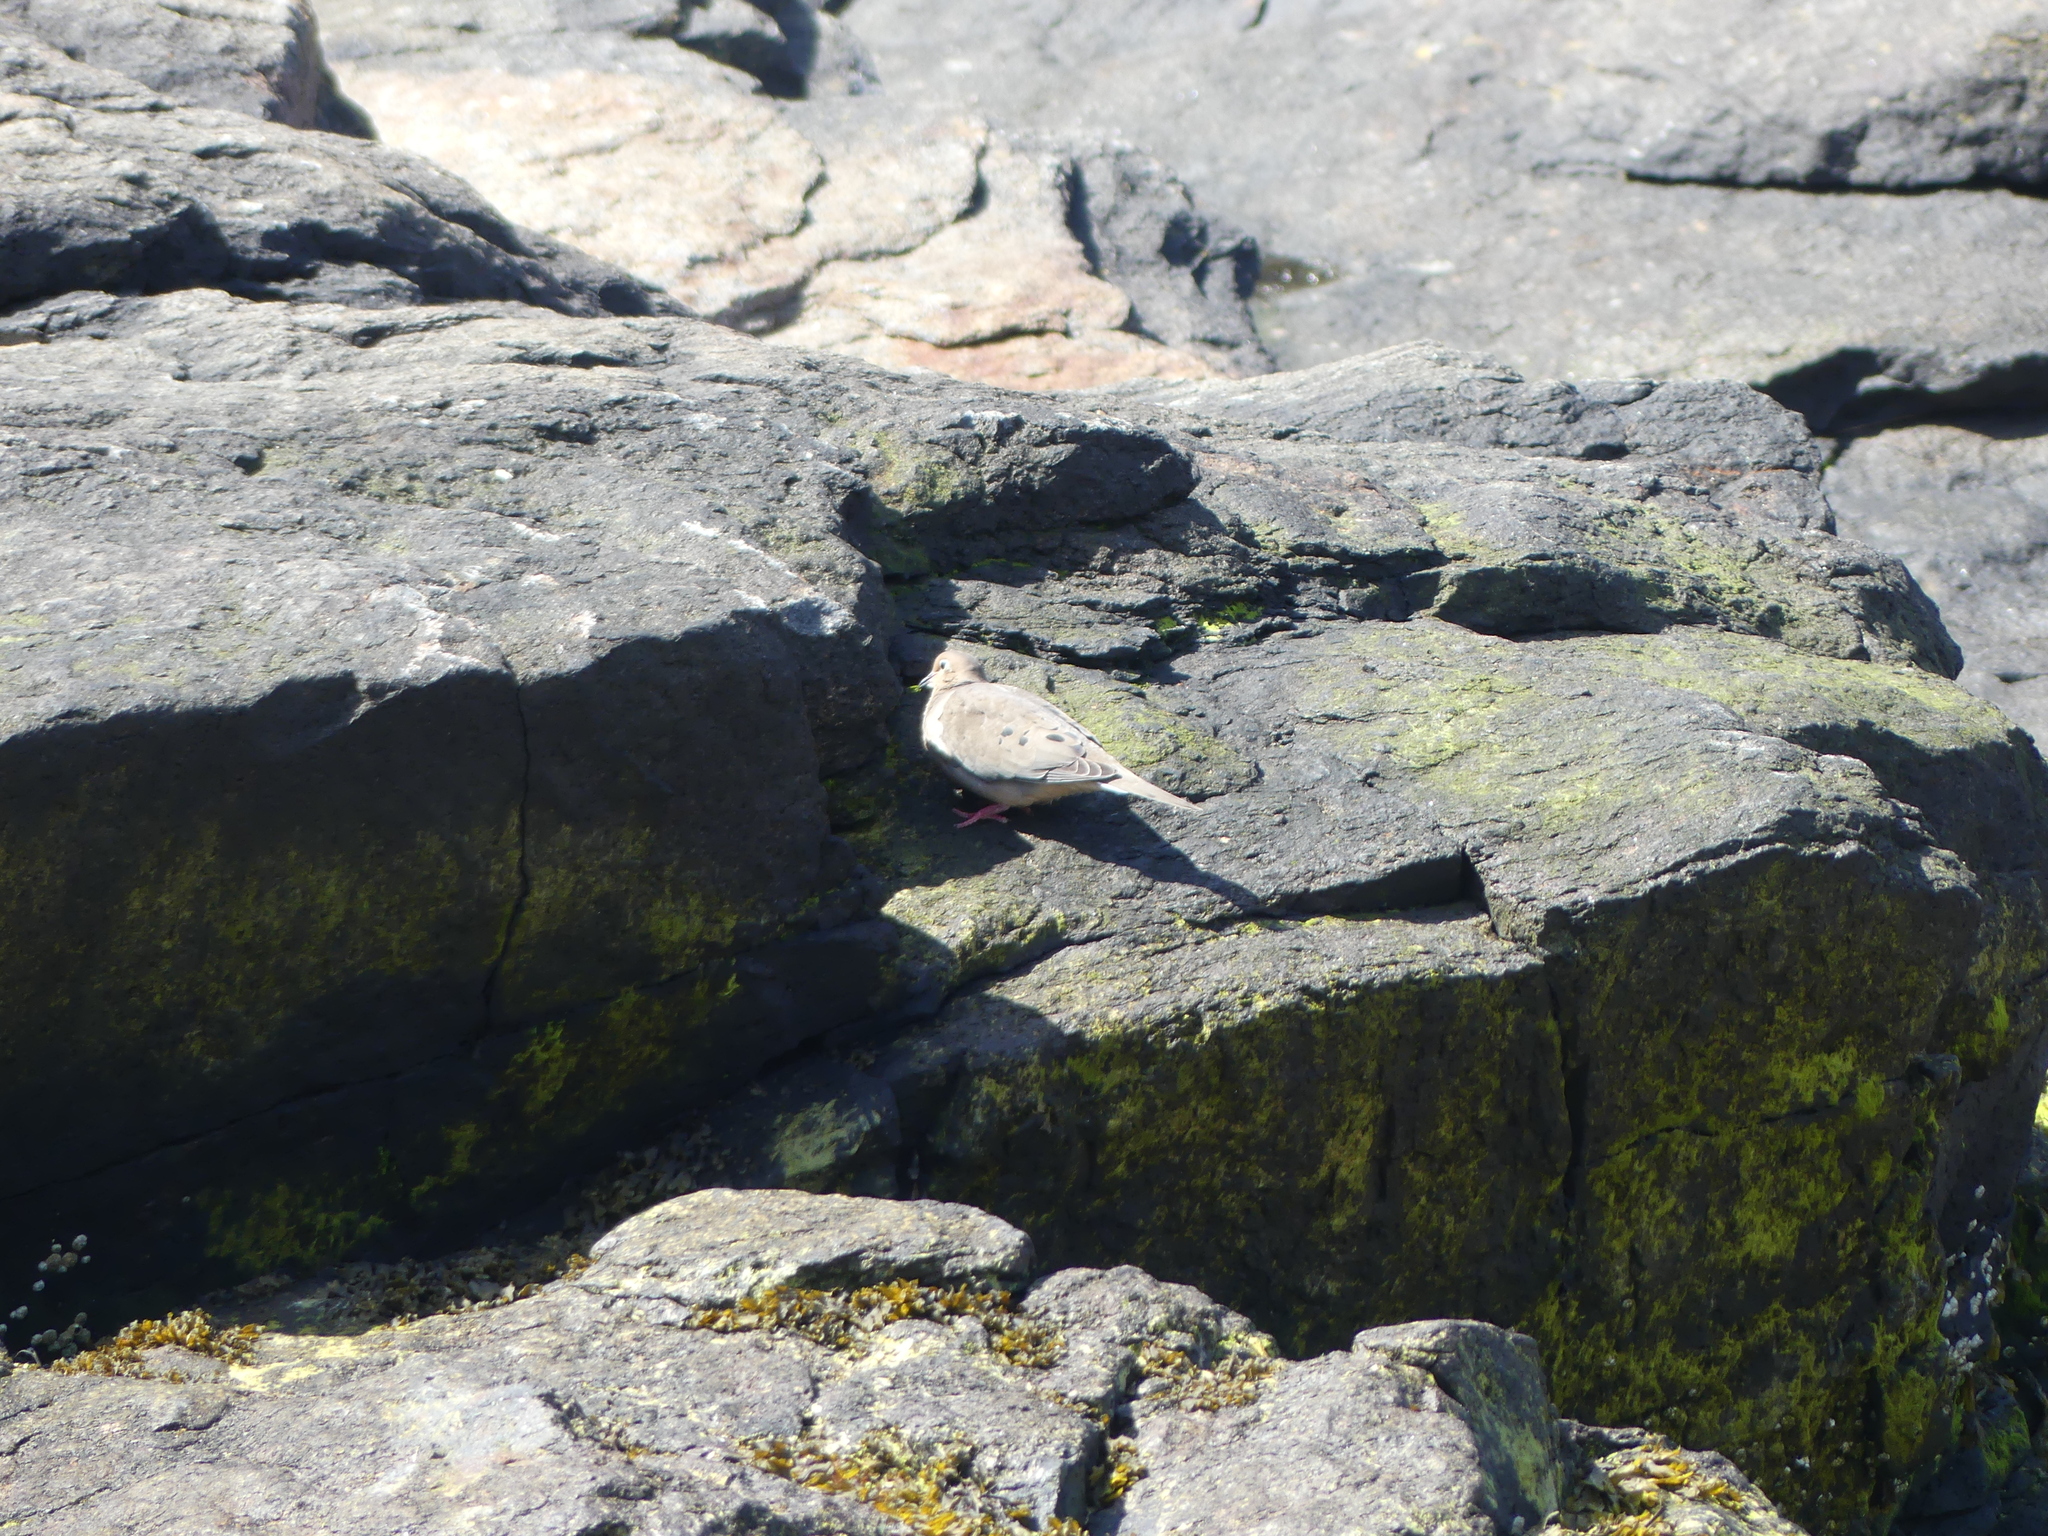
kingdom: Animalia
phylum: Chordata
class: Aves
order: Columbiformes
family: Columbidae
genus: Zenaida
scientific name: Zenaida macroura
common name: Mourning dove
